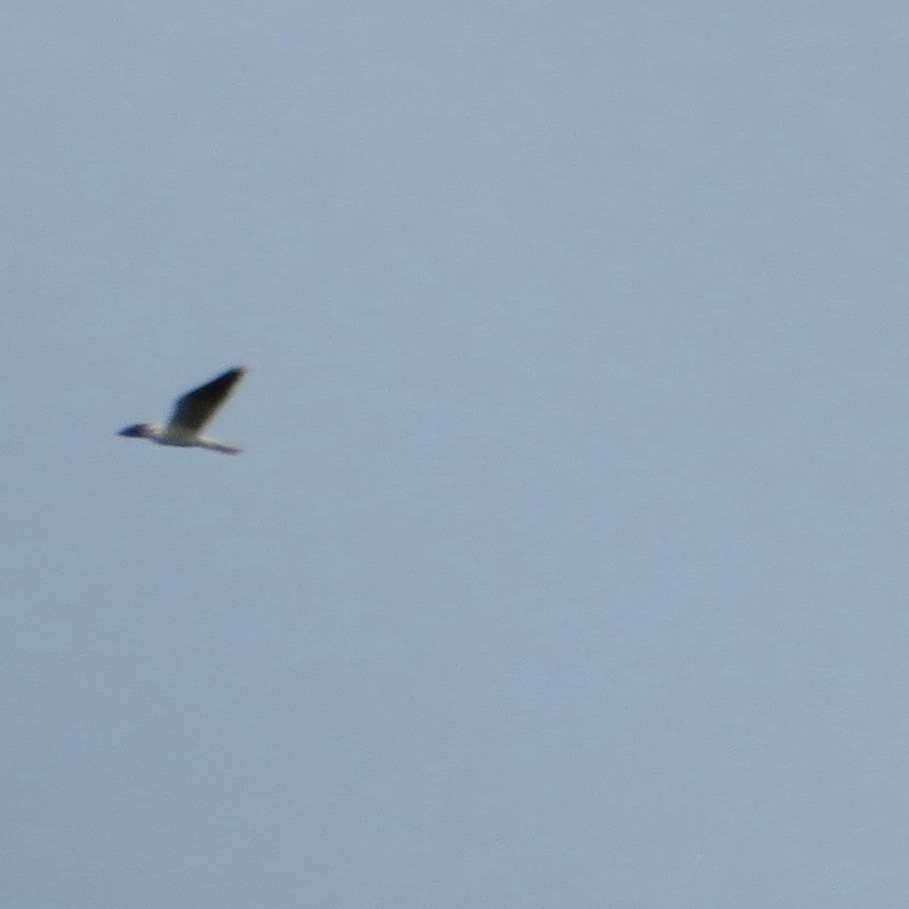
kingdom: Animalia
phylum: Chordata
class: Aves
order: Accipitriformes
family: Accipitridae
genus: Elanus
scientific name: Elanus leucurus
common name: White-tailed kite
